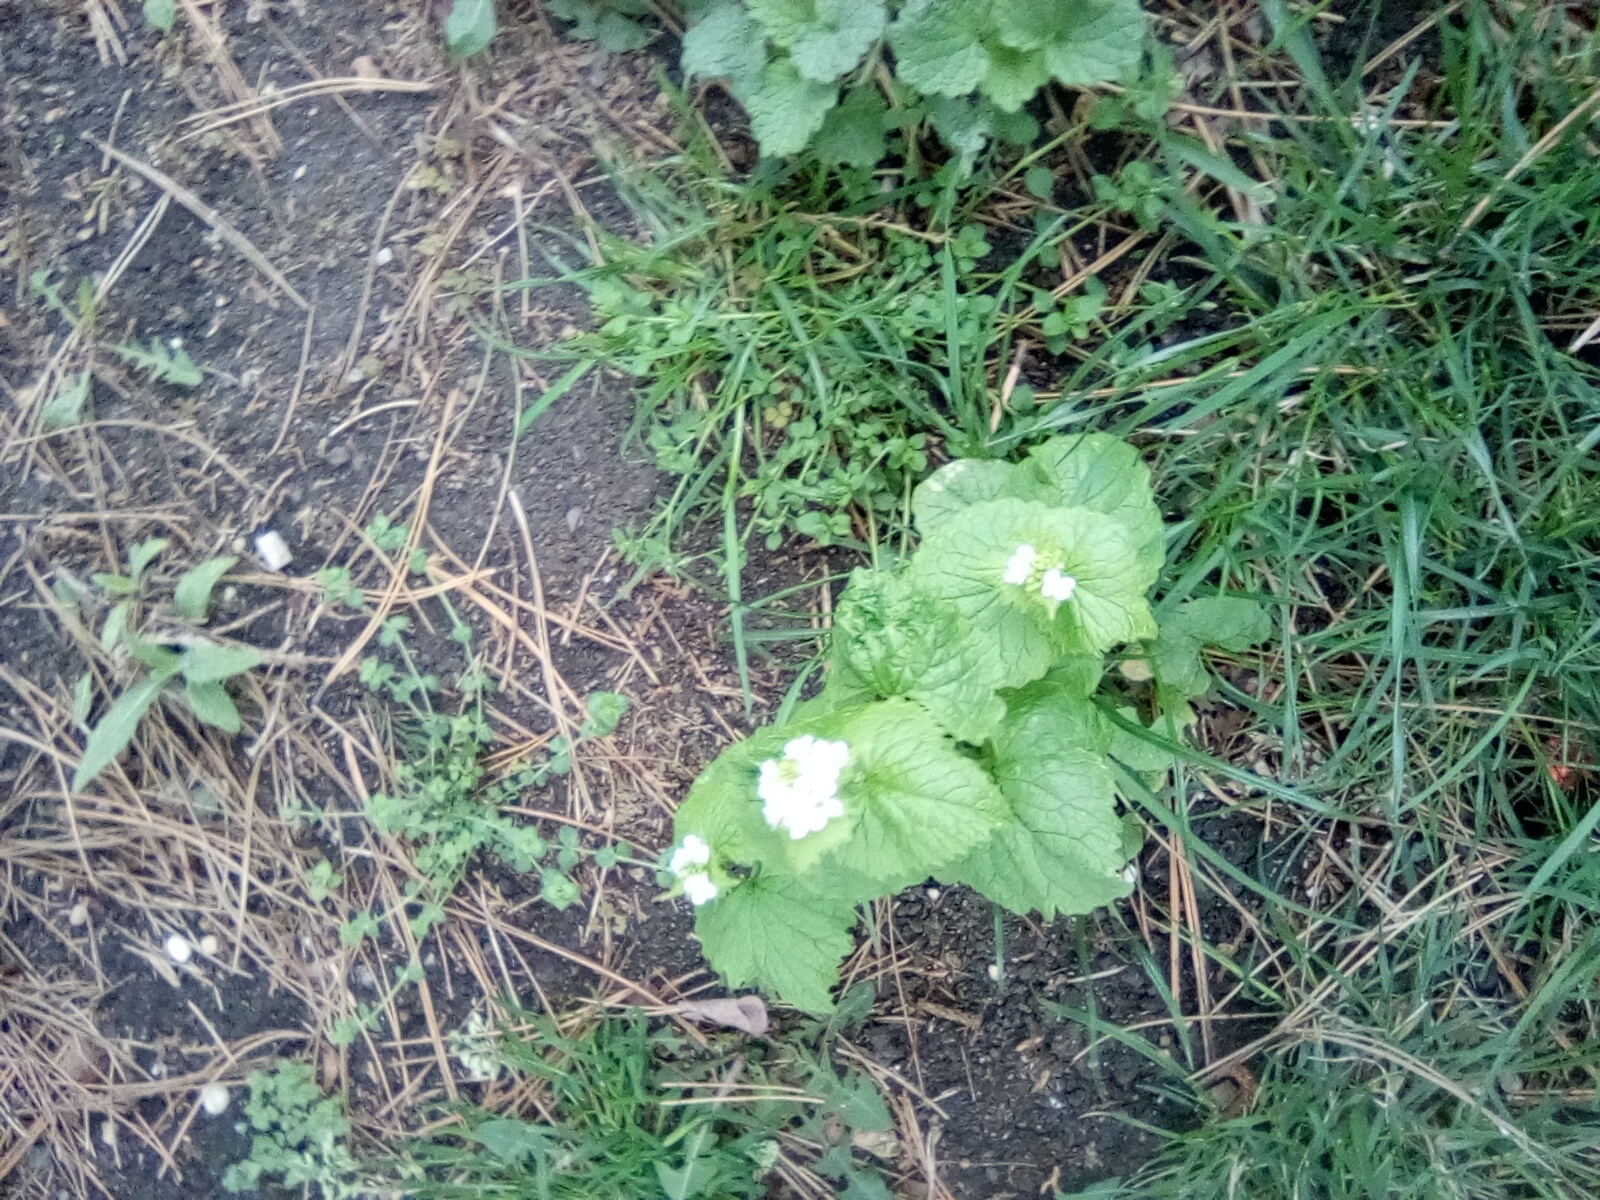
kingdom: Plantae
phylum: Tracheophyta
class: Magnoliopsida
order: Brassicales
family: Brassicaceae
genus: Alliaria
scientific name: Alliaria petiolata
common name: Garlic mustard
